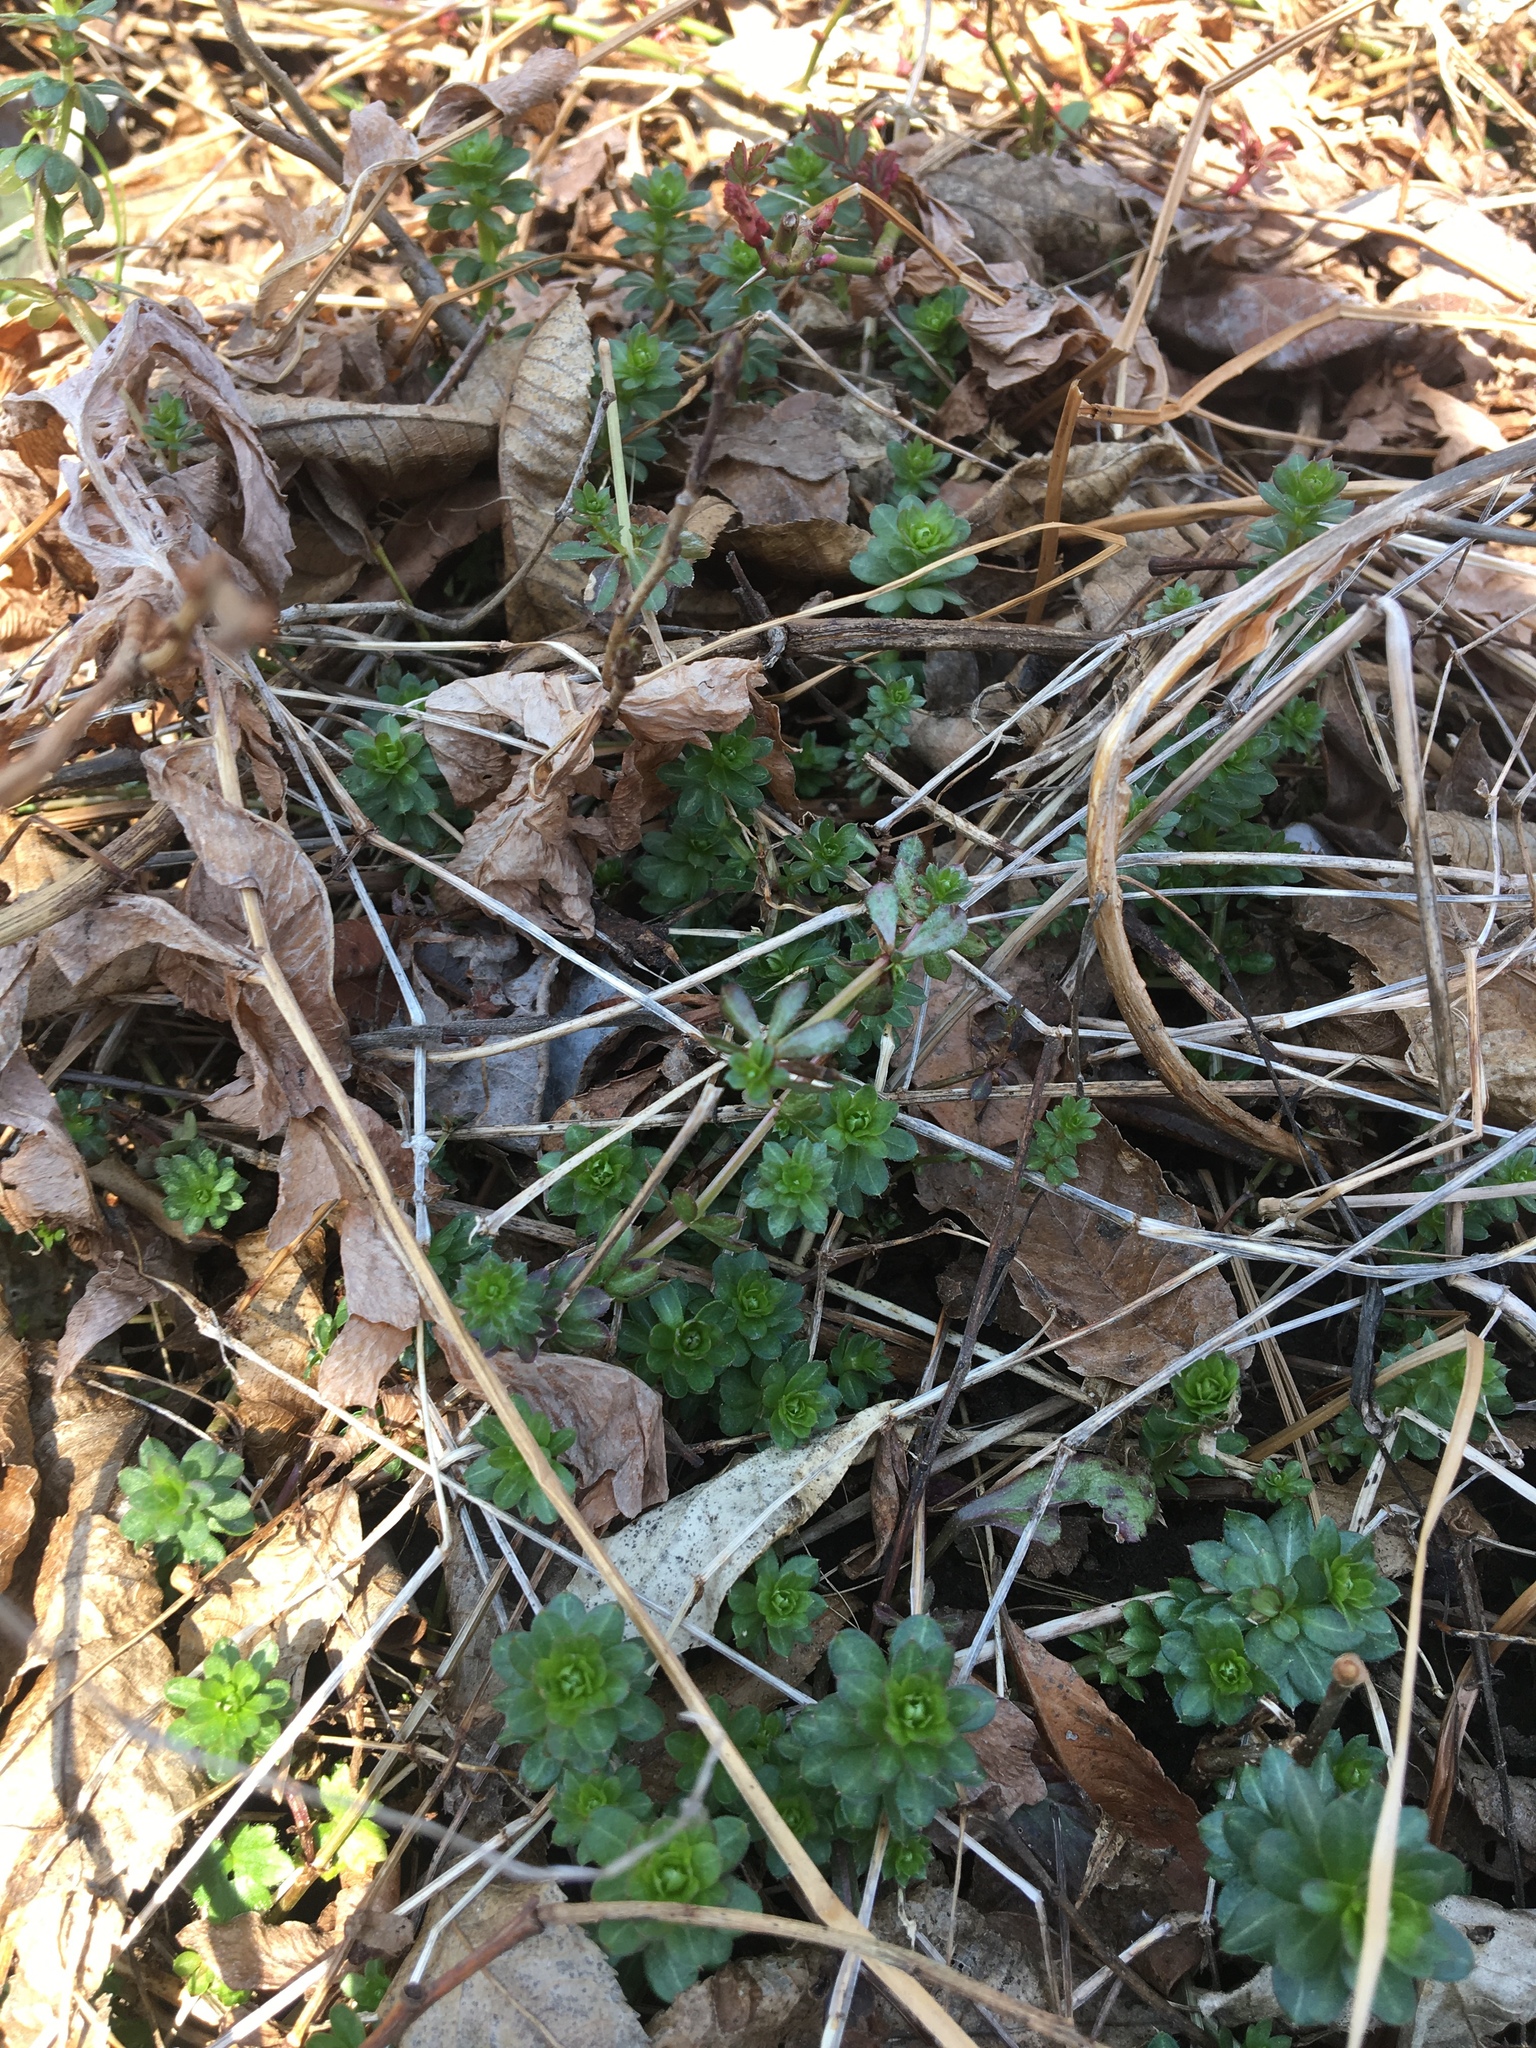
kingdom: Plantae
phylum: Tracheophyta
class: Magnoliopsida
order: Gentianales
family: Rubiaceae
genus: Galium
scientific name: Galium mollugo
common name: Hedge bedstraw
